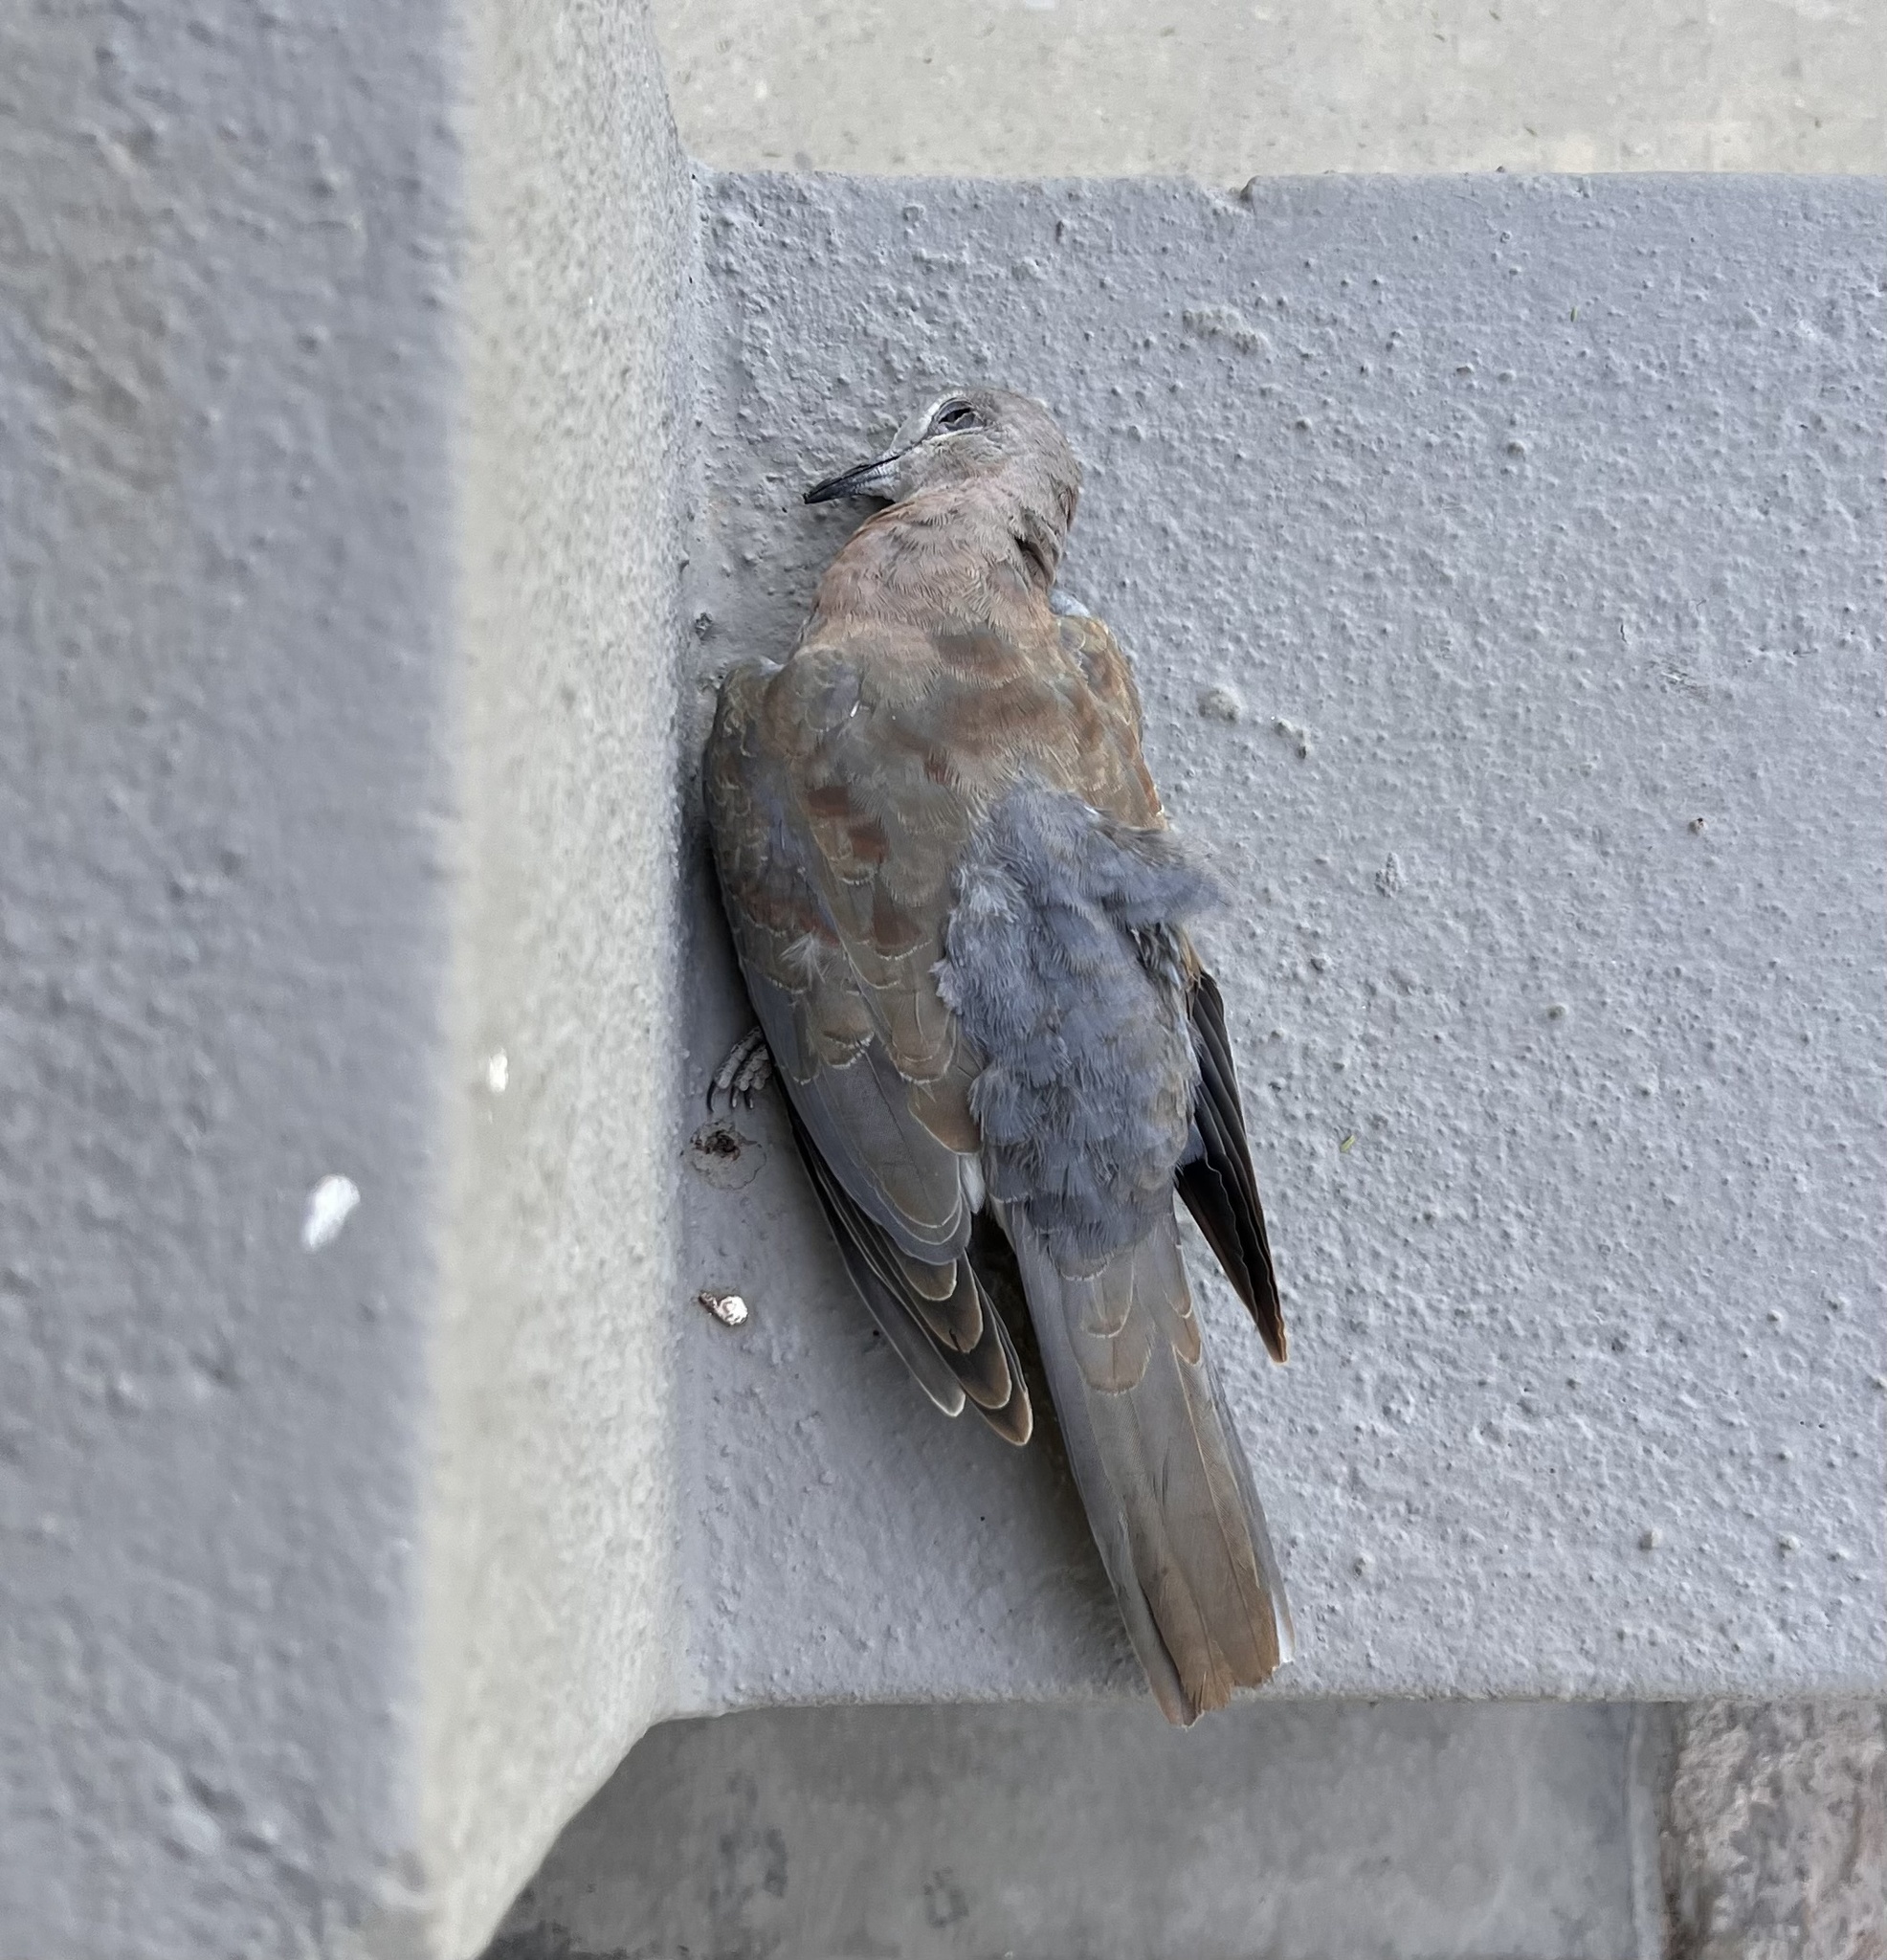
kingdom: Animalia
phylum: Chordata
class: Aves
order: Columbiformes
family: Columbidae
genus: Spilopelia
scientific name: Spilopelia senegalensis
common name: Laughing dove
